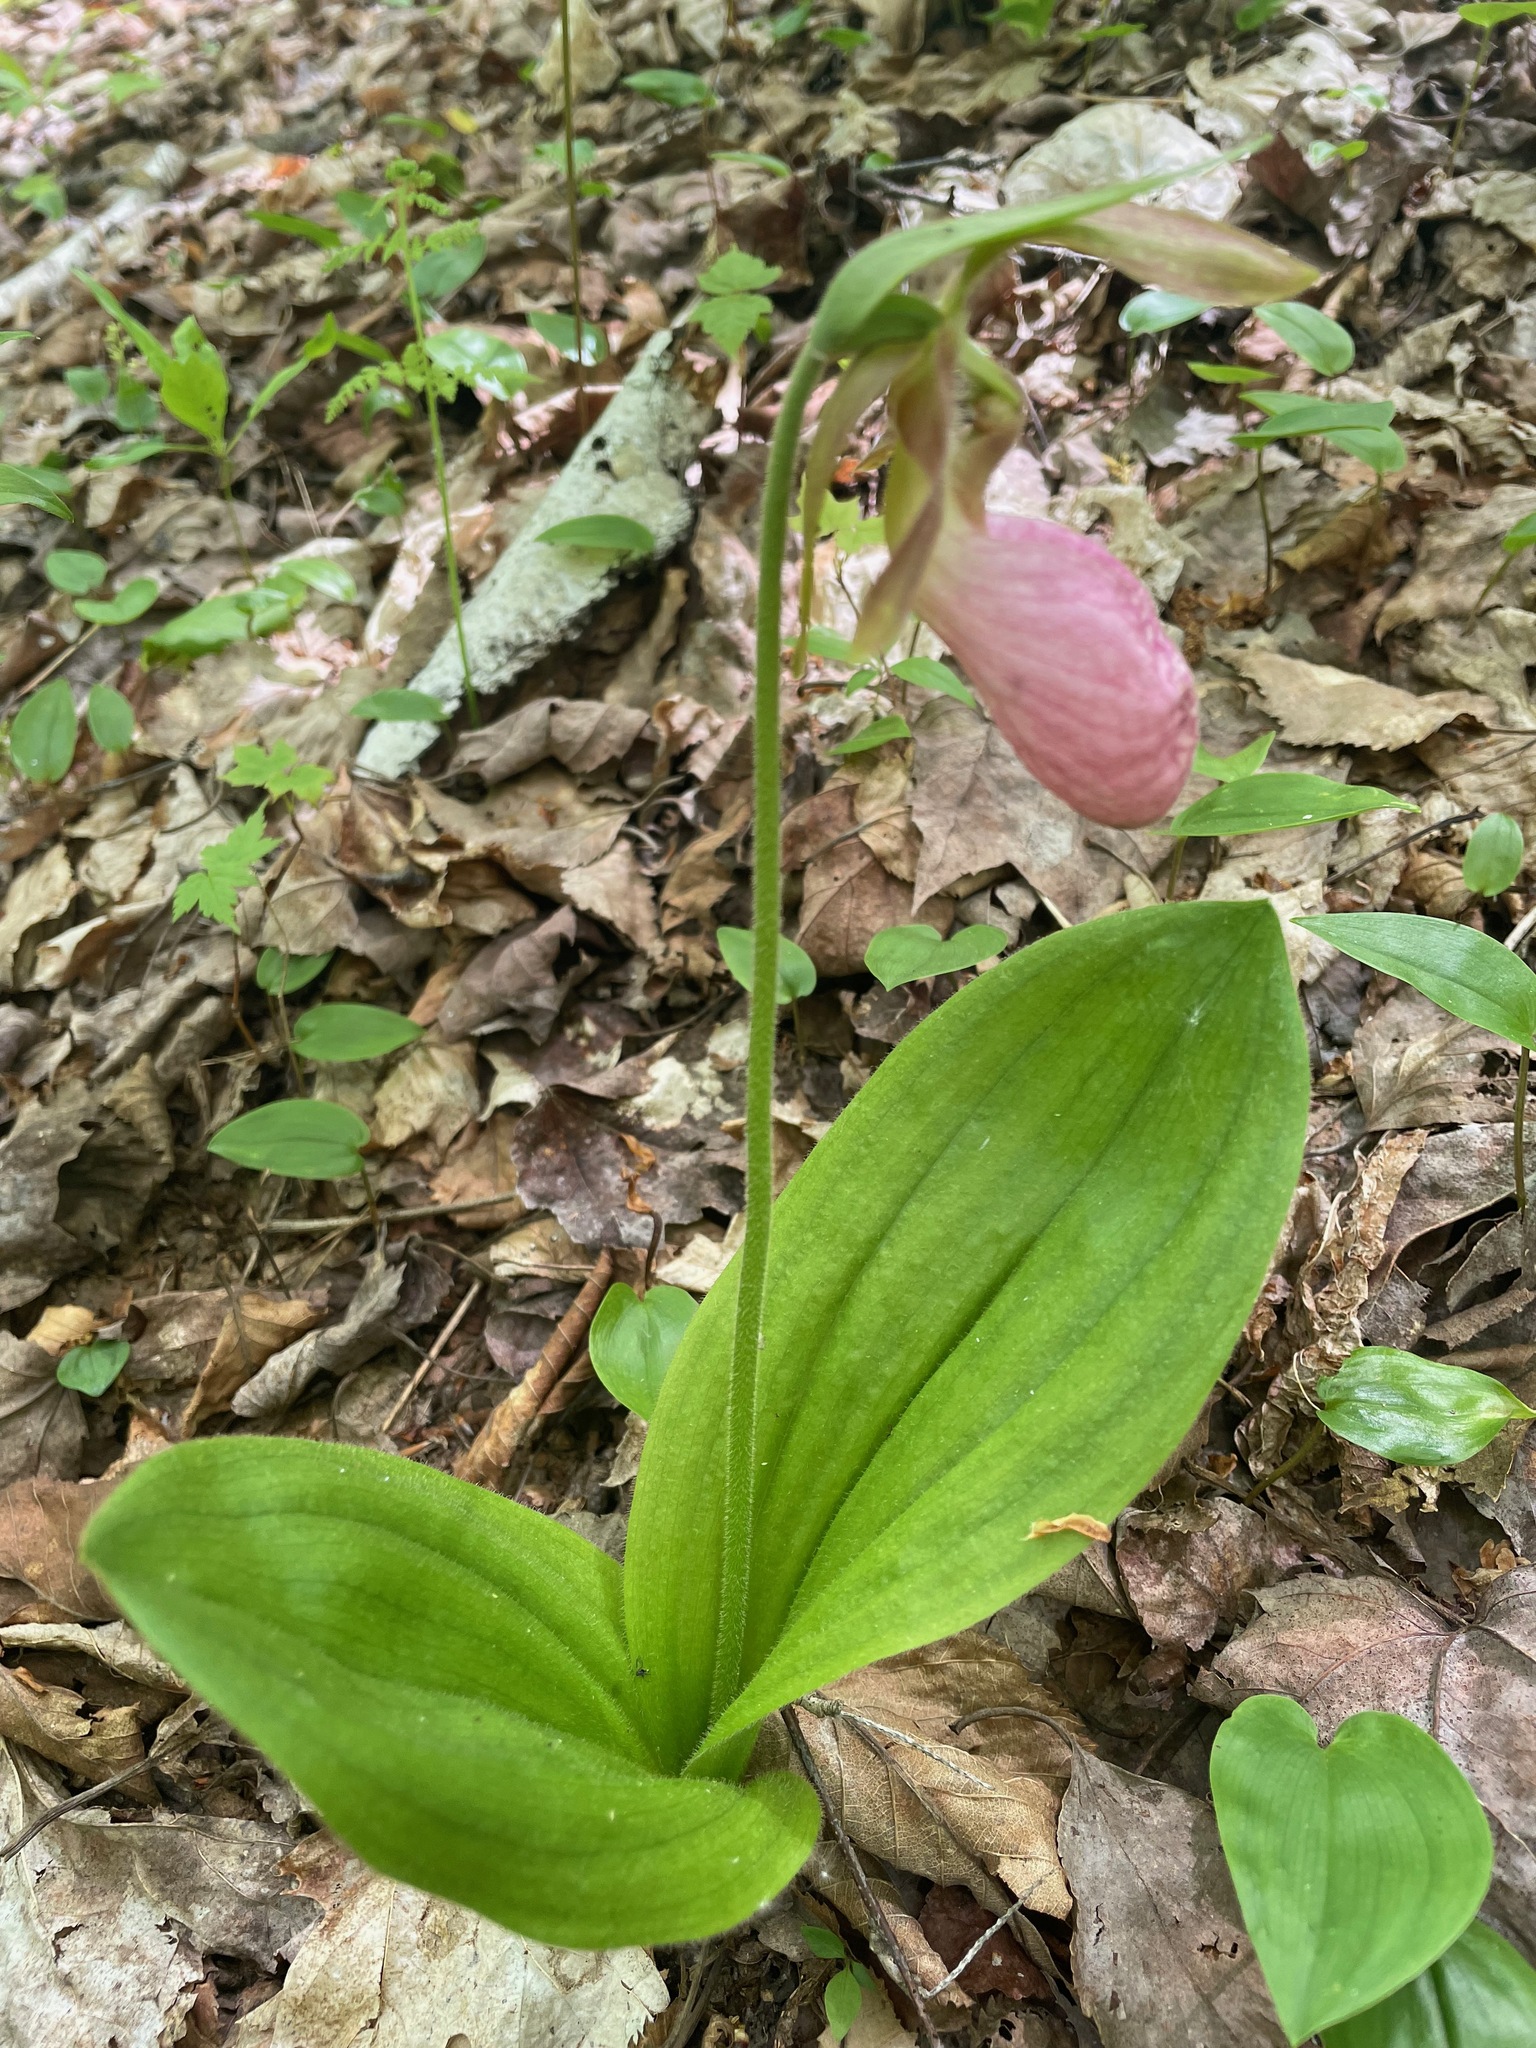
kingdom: Plantae
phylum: Tracheophyta
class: Liliopsida
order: Asparagales
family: Orchidaceae
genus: Cypripedium
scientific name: Cypripedium acaule
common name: Pink lady's-slipper
